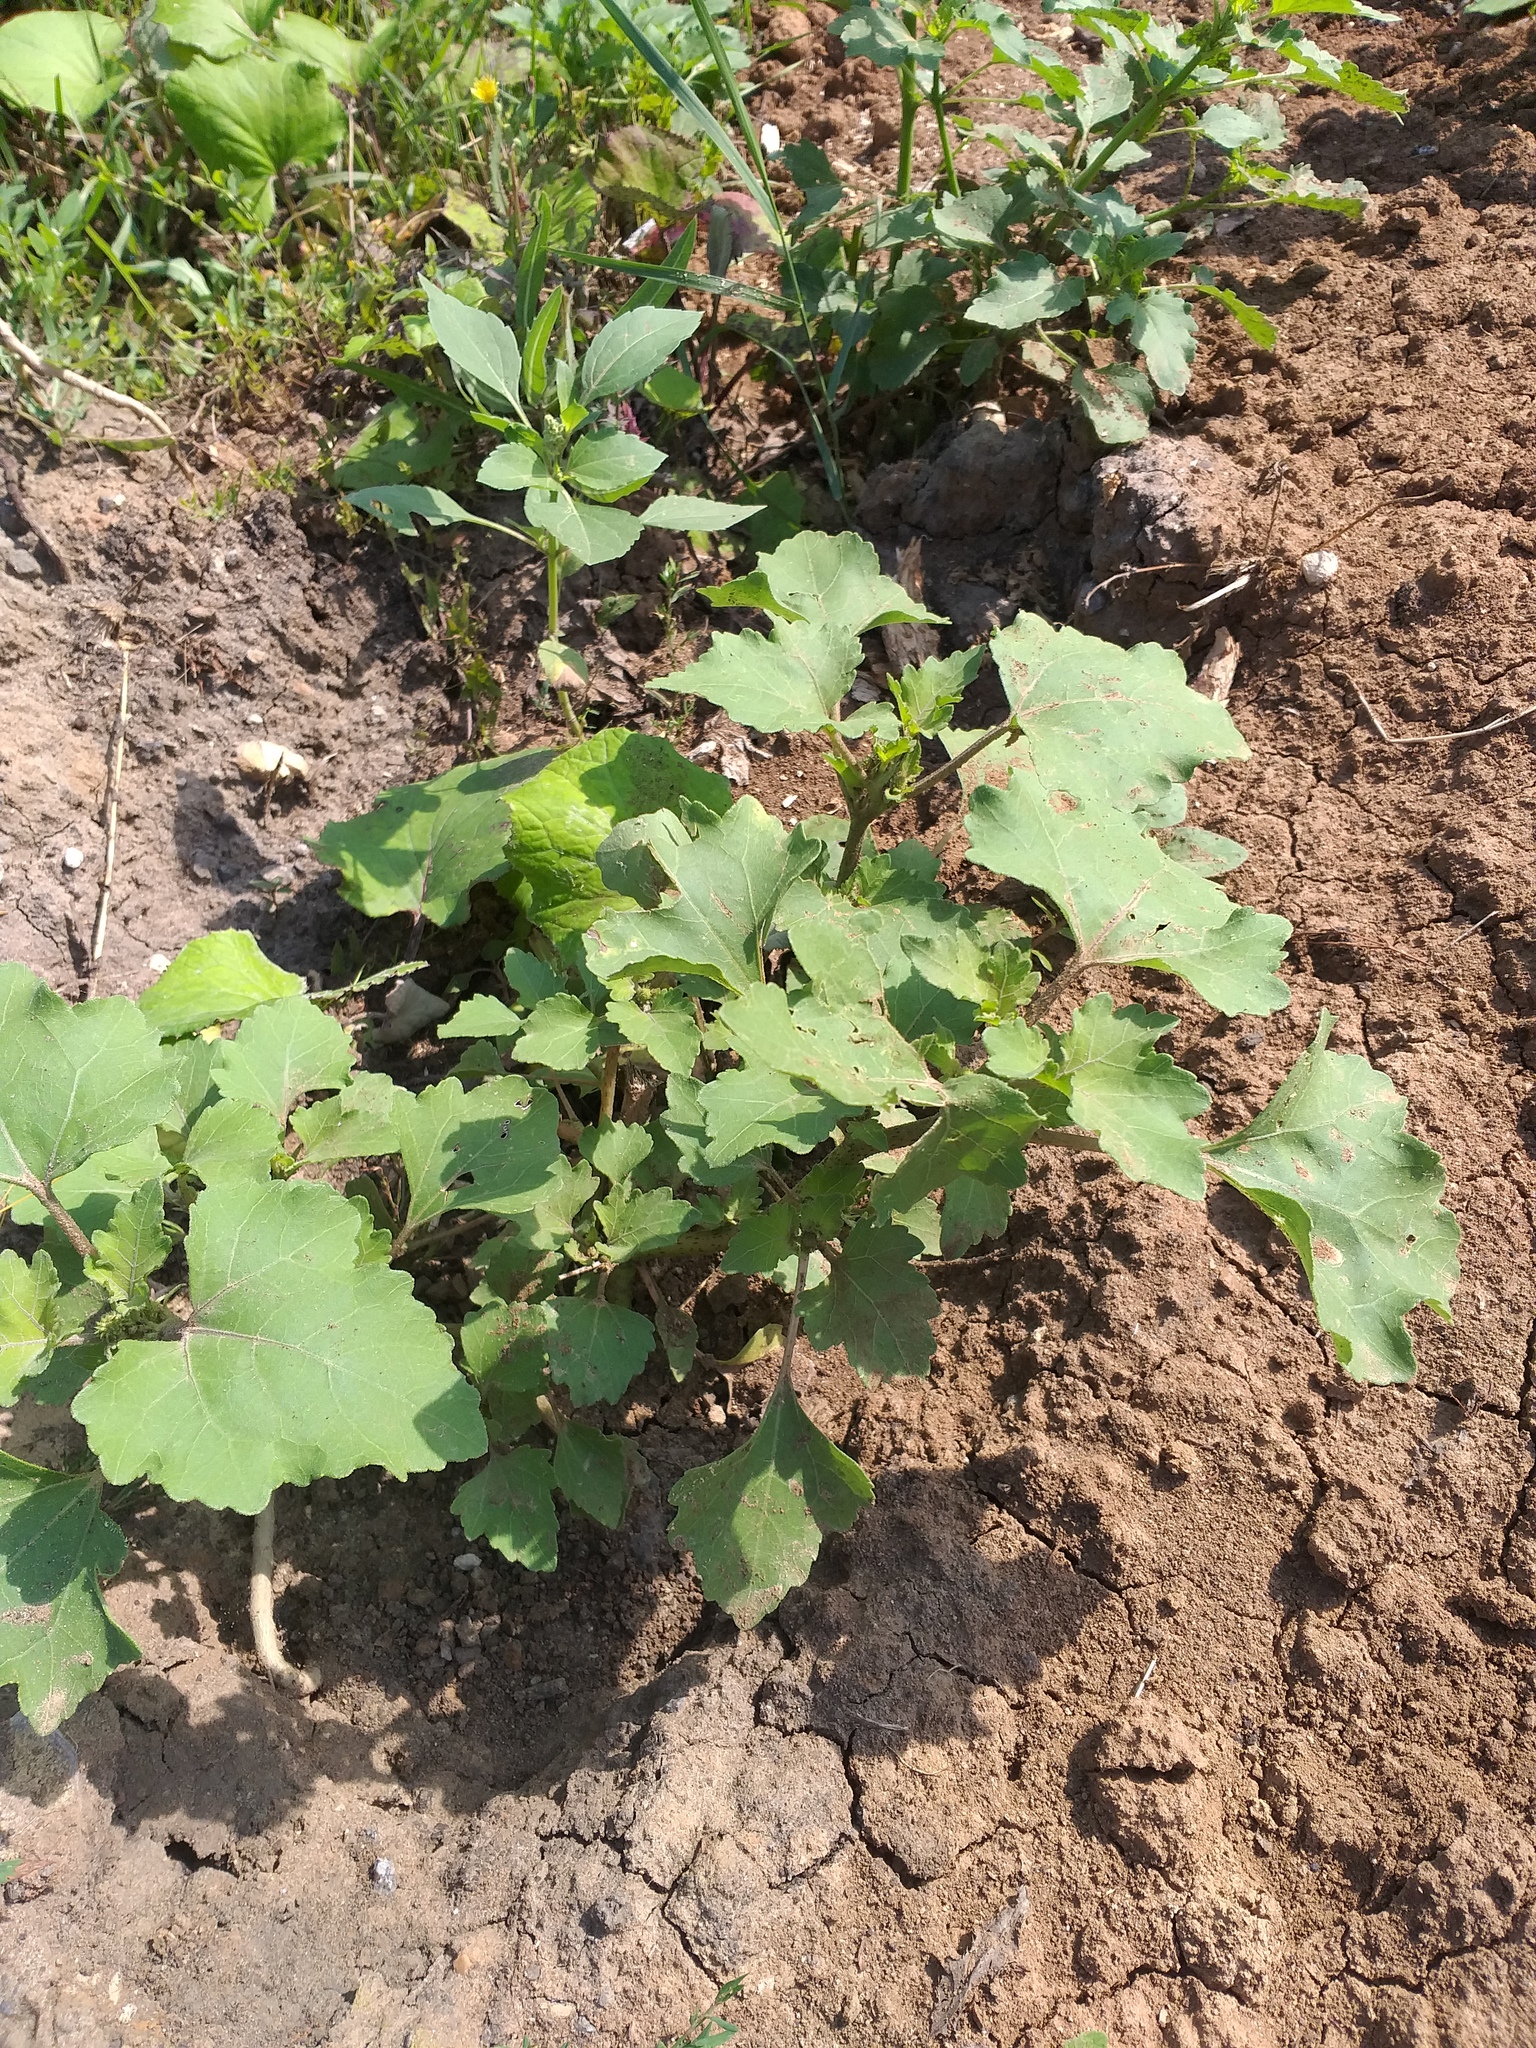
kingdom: Plantae
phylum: Tracheophyta
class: Magnoliopsida
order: Asterales
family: Asteraceae
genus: Xanthium
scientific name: Xanthium orientale
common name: Californian burr
